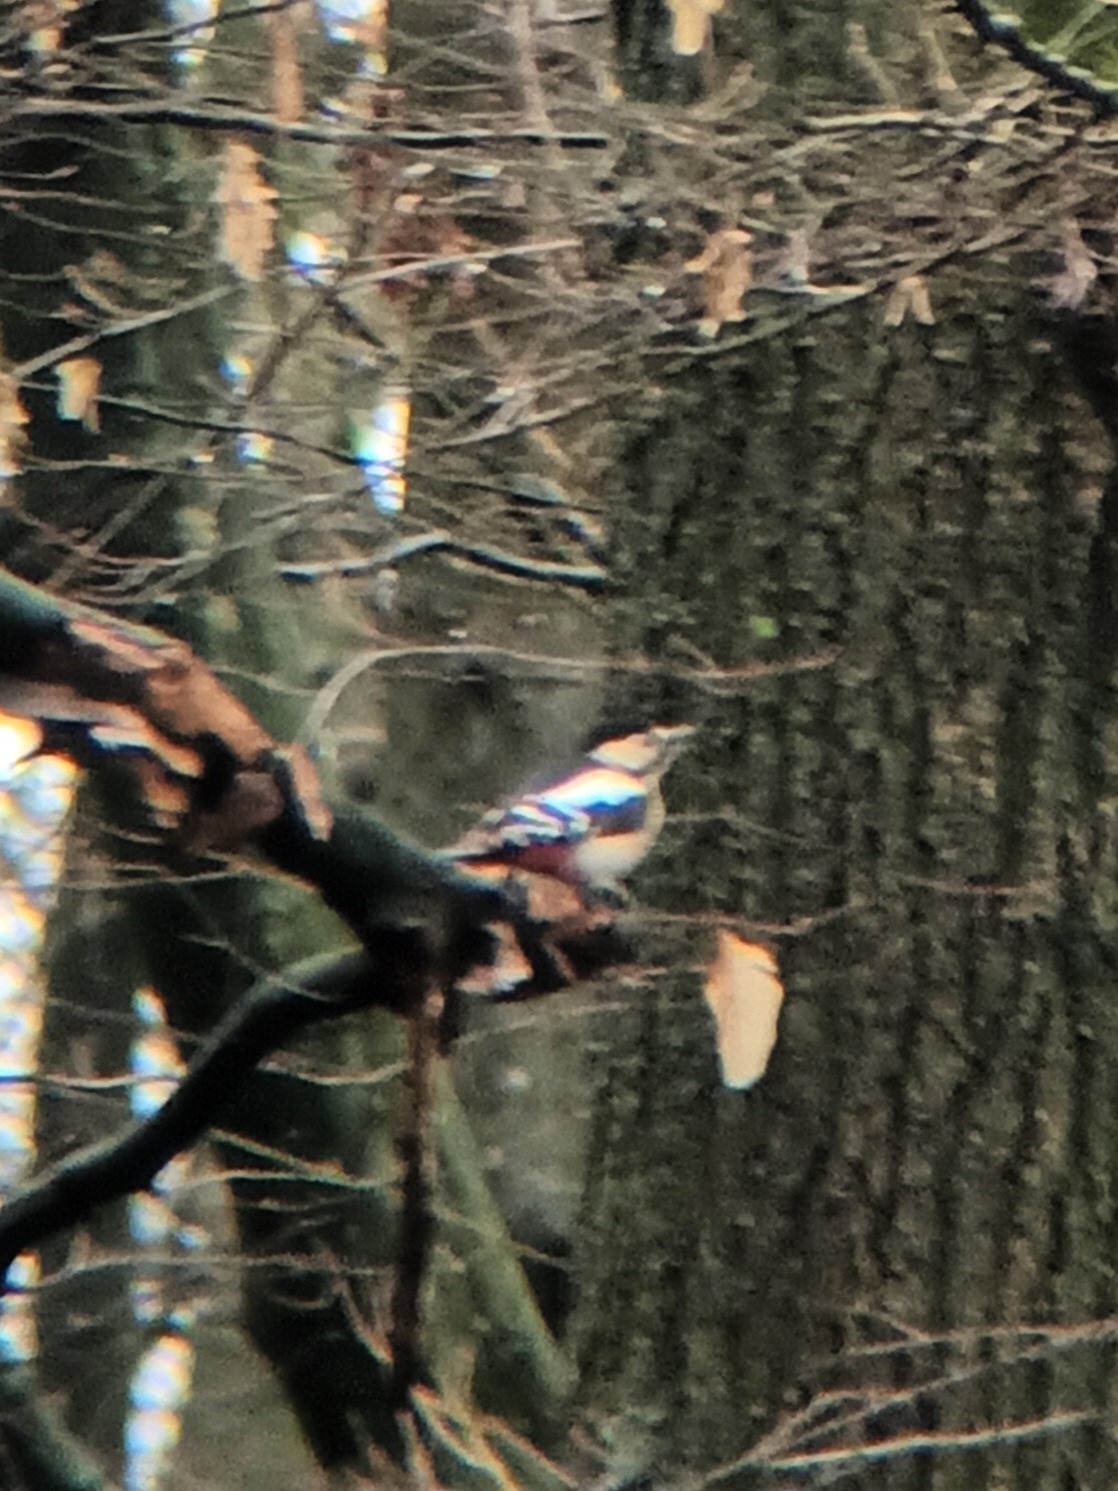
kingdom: Animalia
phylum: Chordata
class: Aves
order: Piciformes
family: Picidae
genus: Dendrocopos
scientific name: Dendrocopos major
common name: Great spotted woodpecker
